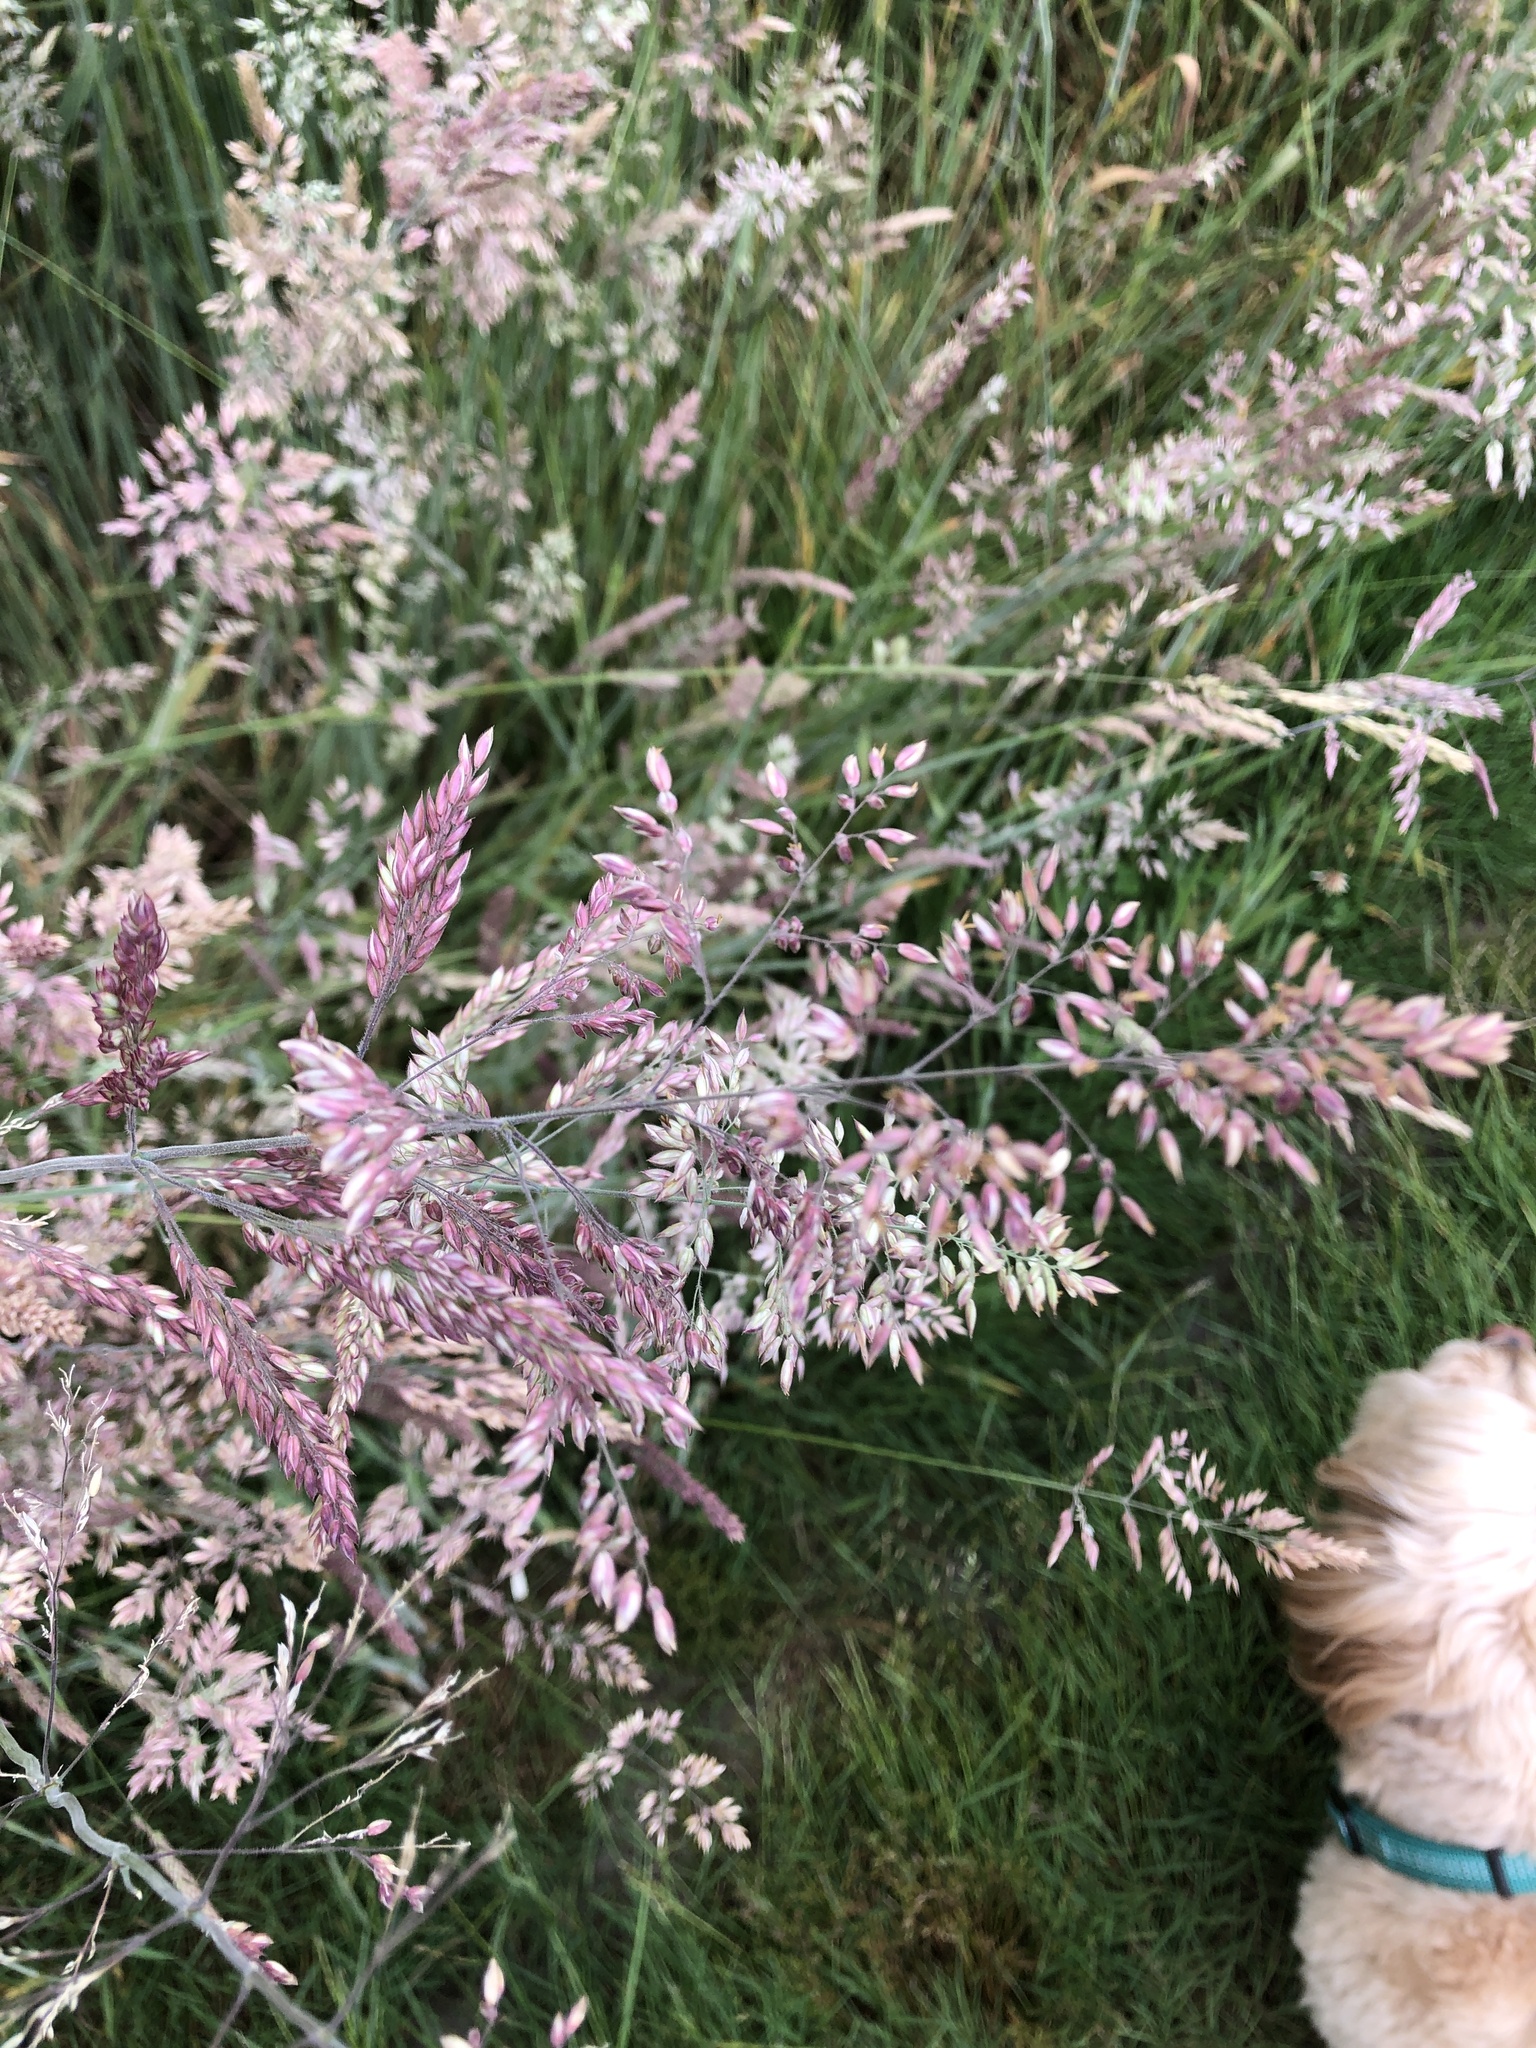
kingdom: Plantae
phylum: Tracheophyta
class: Liliopsida
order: Poales
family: Poaceae
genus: Holcus
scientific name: Holcus lanatus
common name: Yorkshire-fog
